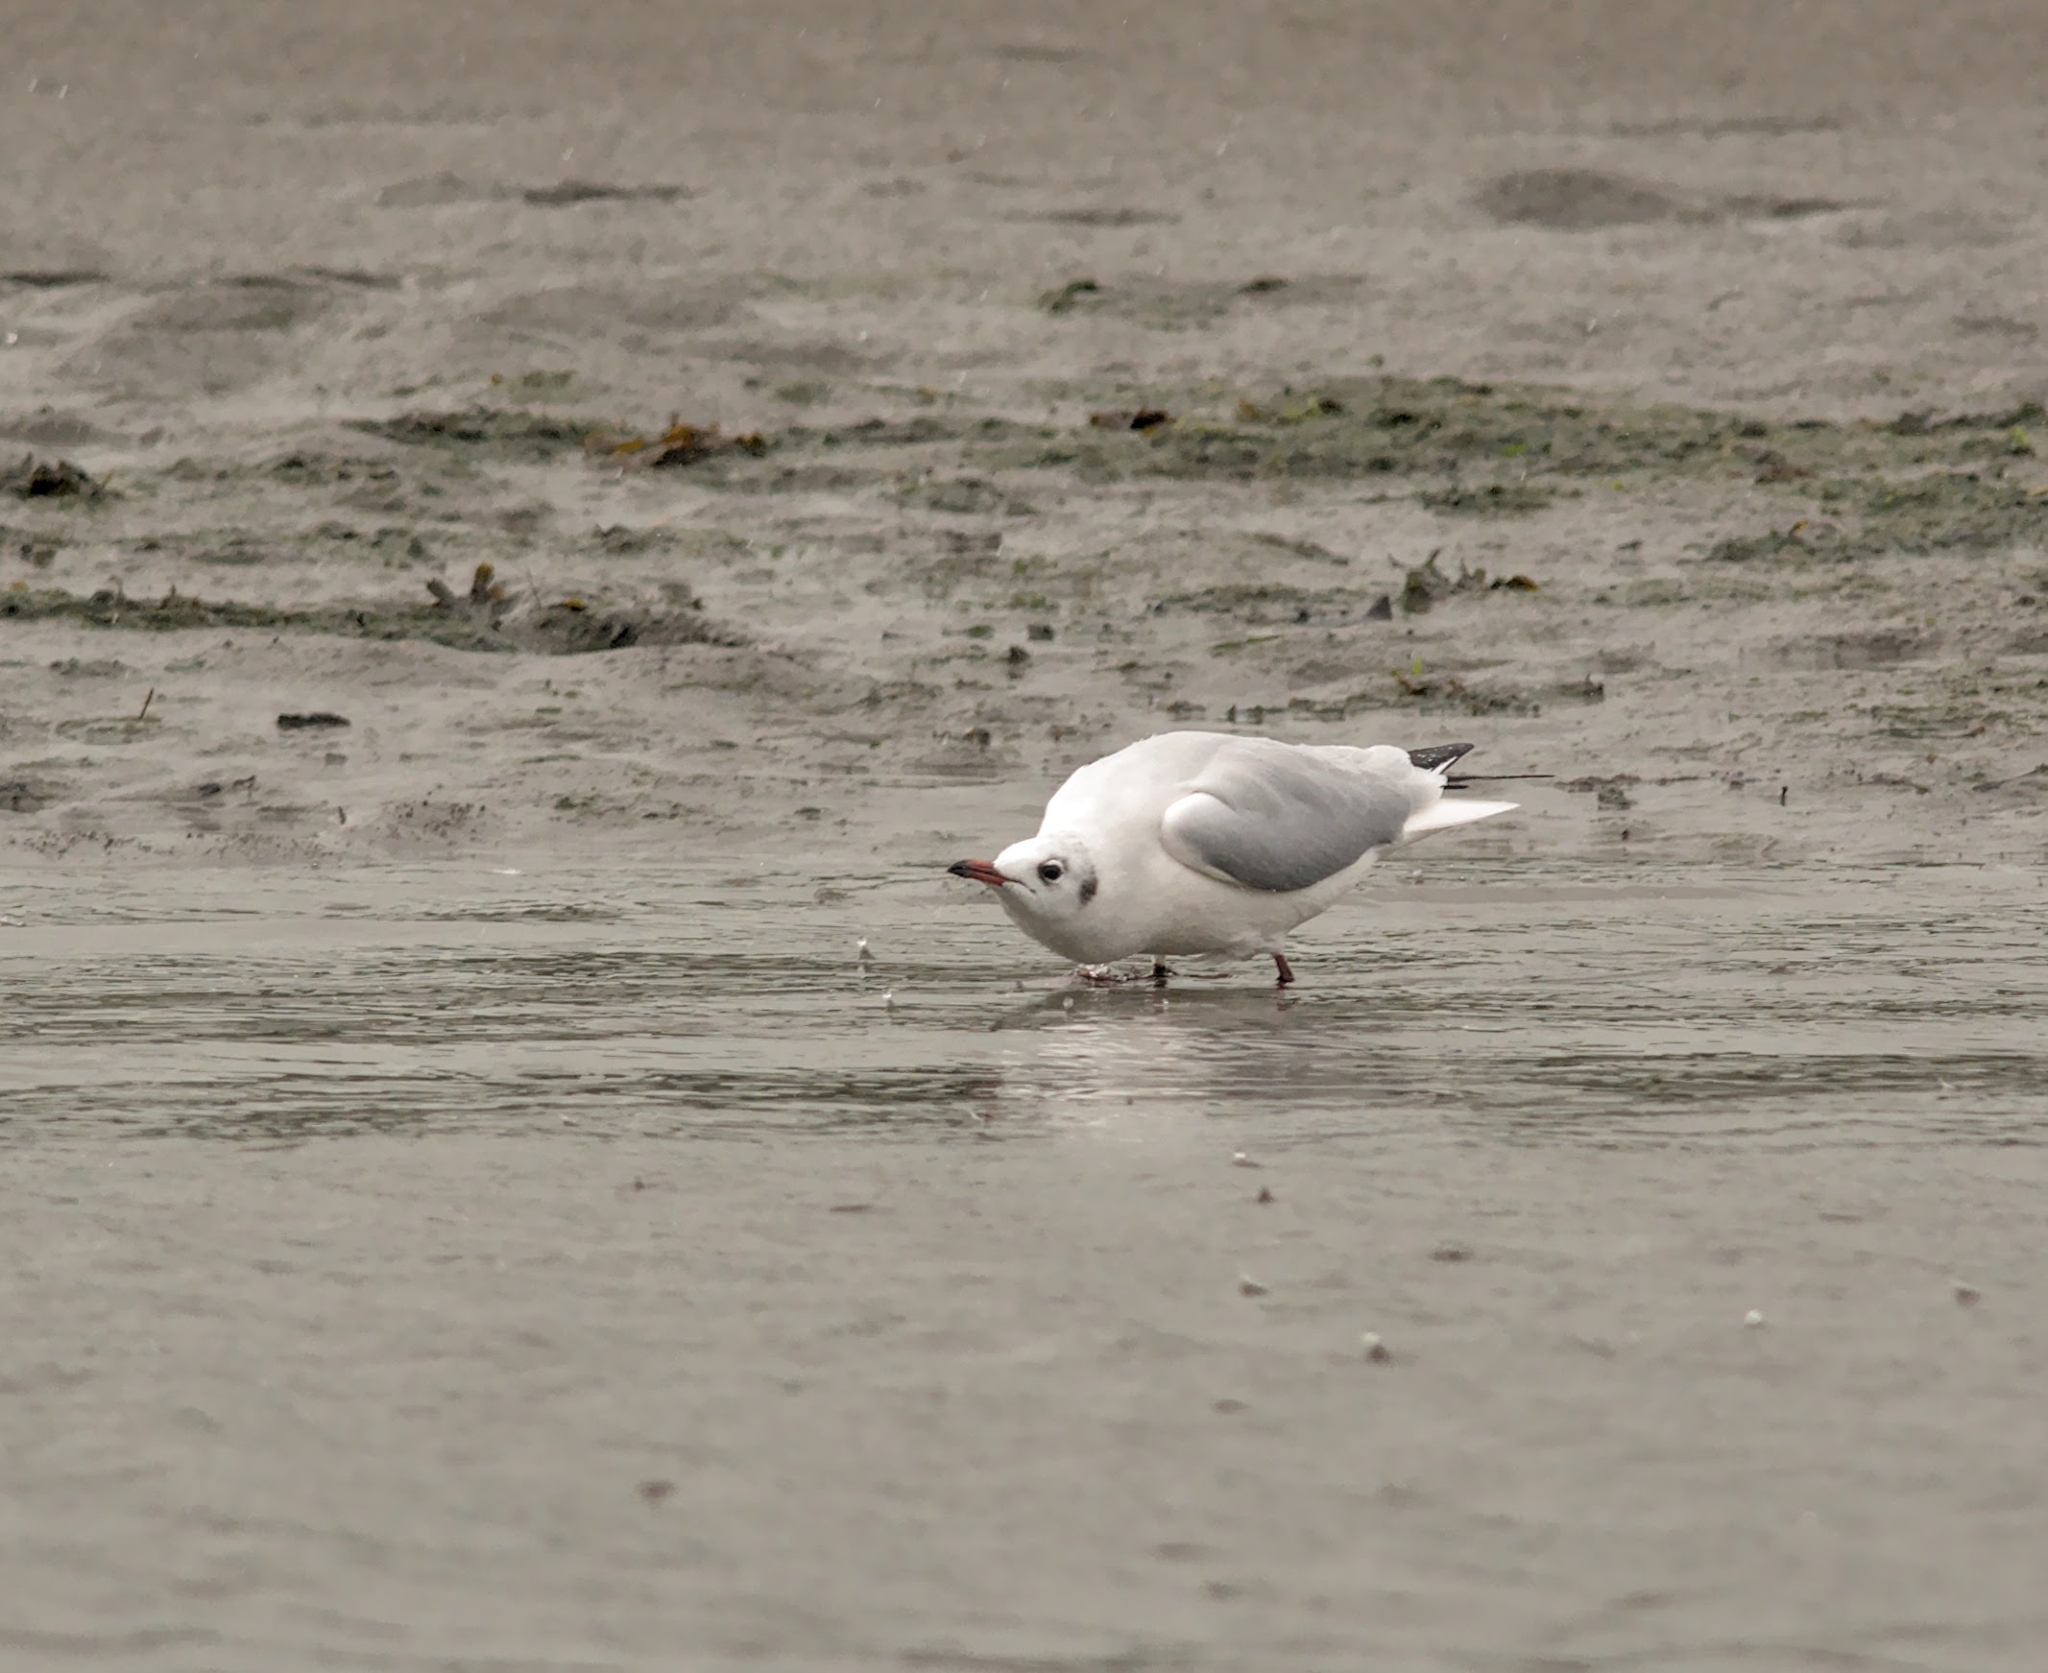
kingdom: Animalia
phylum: Chordata
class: Aves
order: Charadriiformes
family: Laridae
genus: Chroicocephalus
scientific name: Chroicocephalus ridibundus
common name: Black-headed gull
